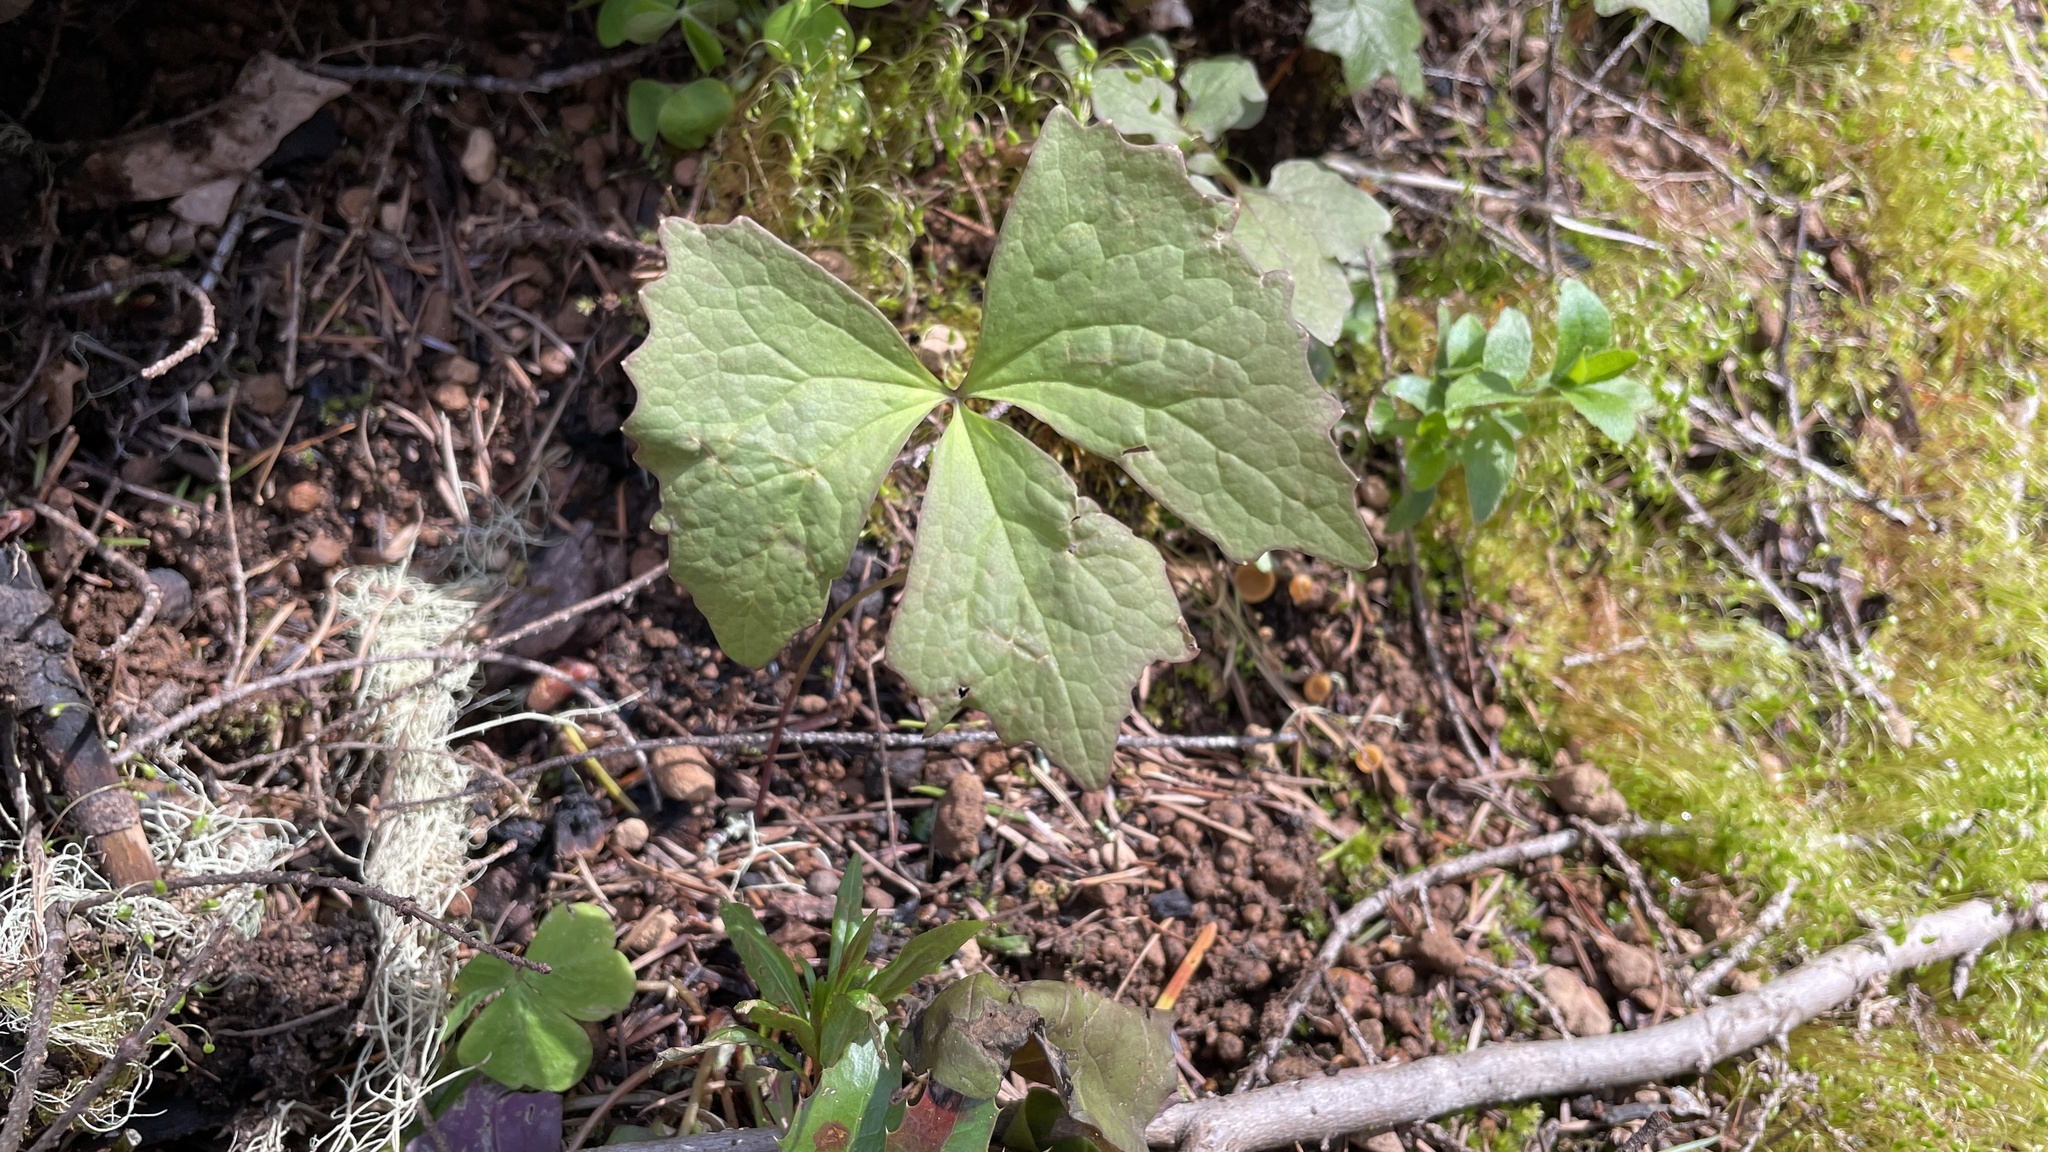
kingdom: Plantae
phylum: Tracheophyta
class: Magnoliopsida
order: Ranunculales
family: Berberidaceae
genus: Achlys
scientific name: Achlys triphylla
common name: Vanilla-leaf
